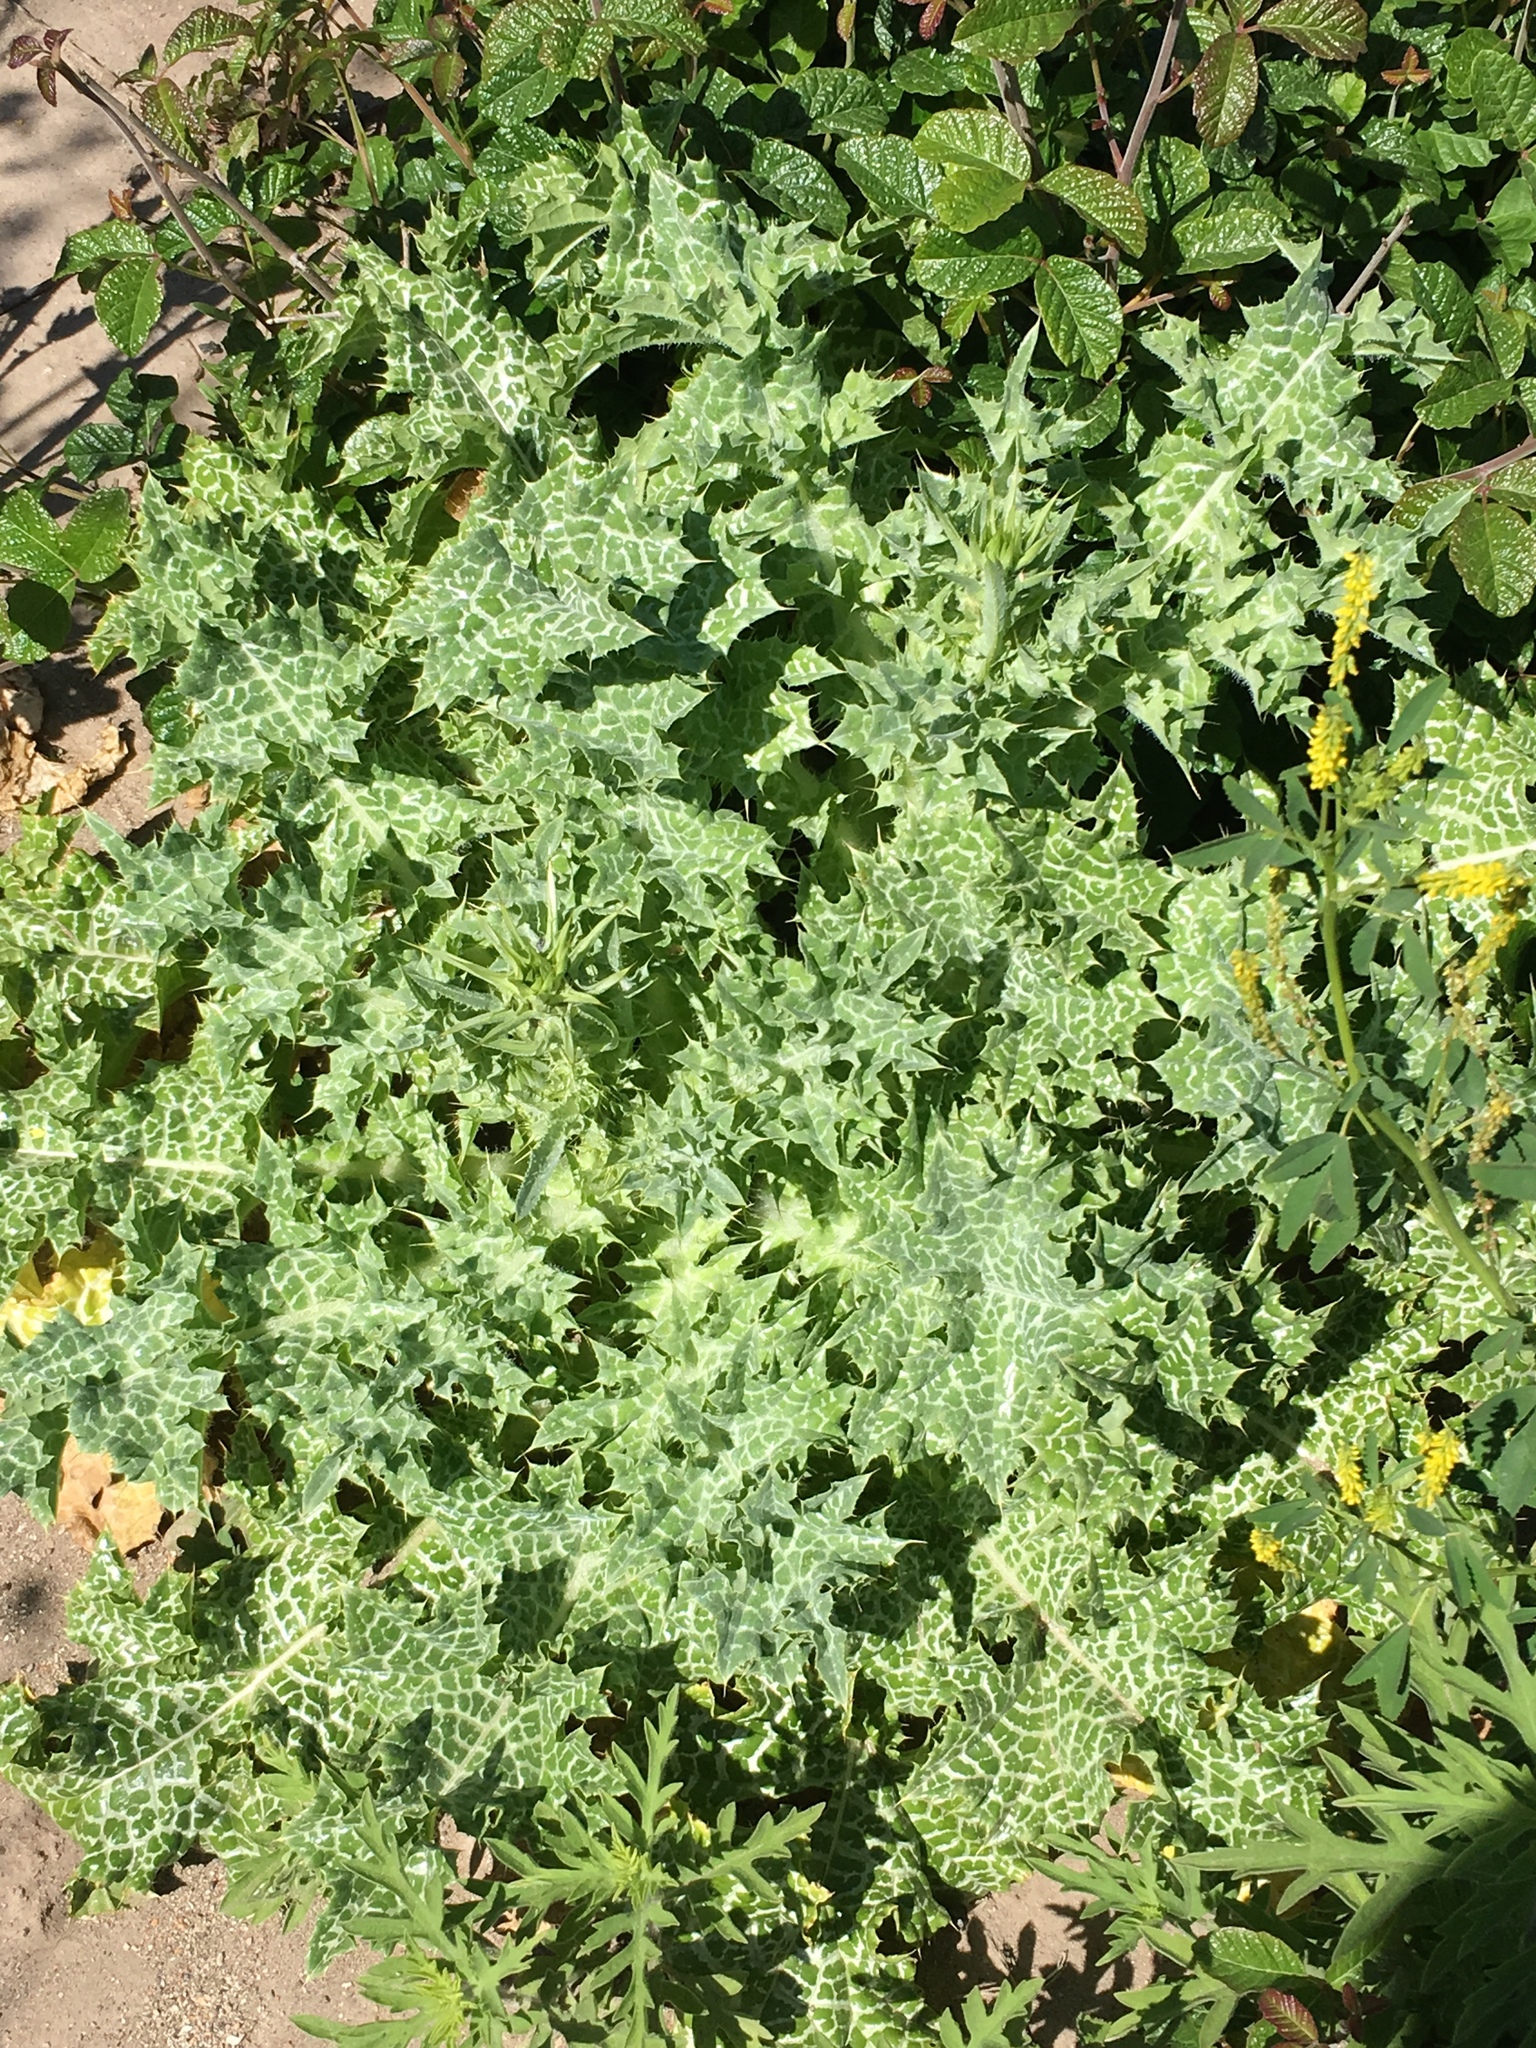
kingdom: Plantae
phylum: Tracheophyta
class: Magnoliopsida
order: Asterales
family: Asteraceae
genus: Silybum
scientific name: Silybum marianum
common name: Milk thistle
